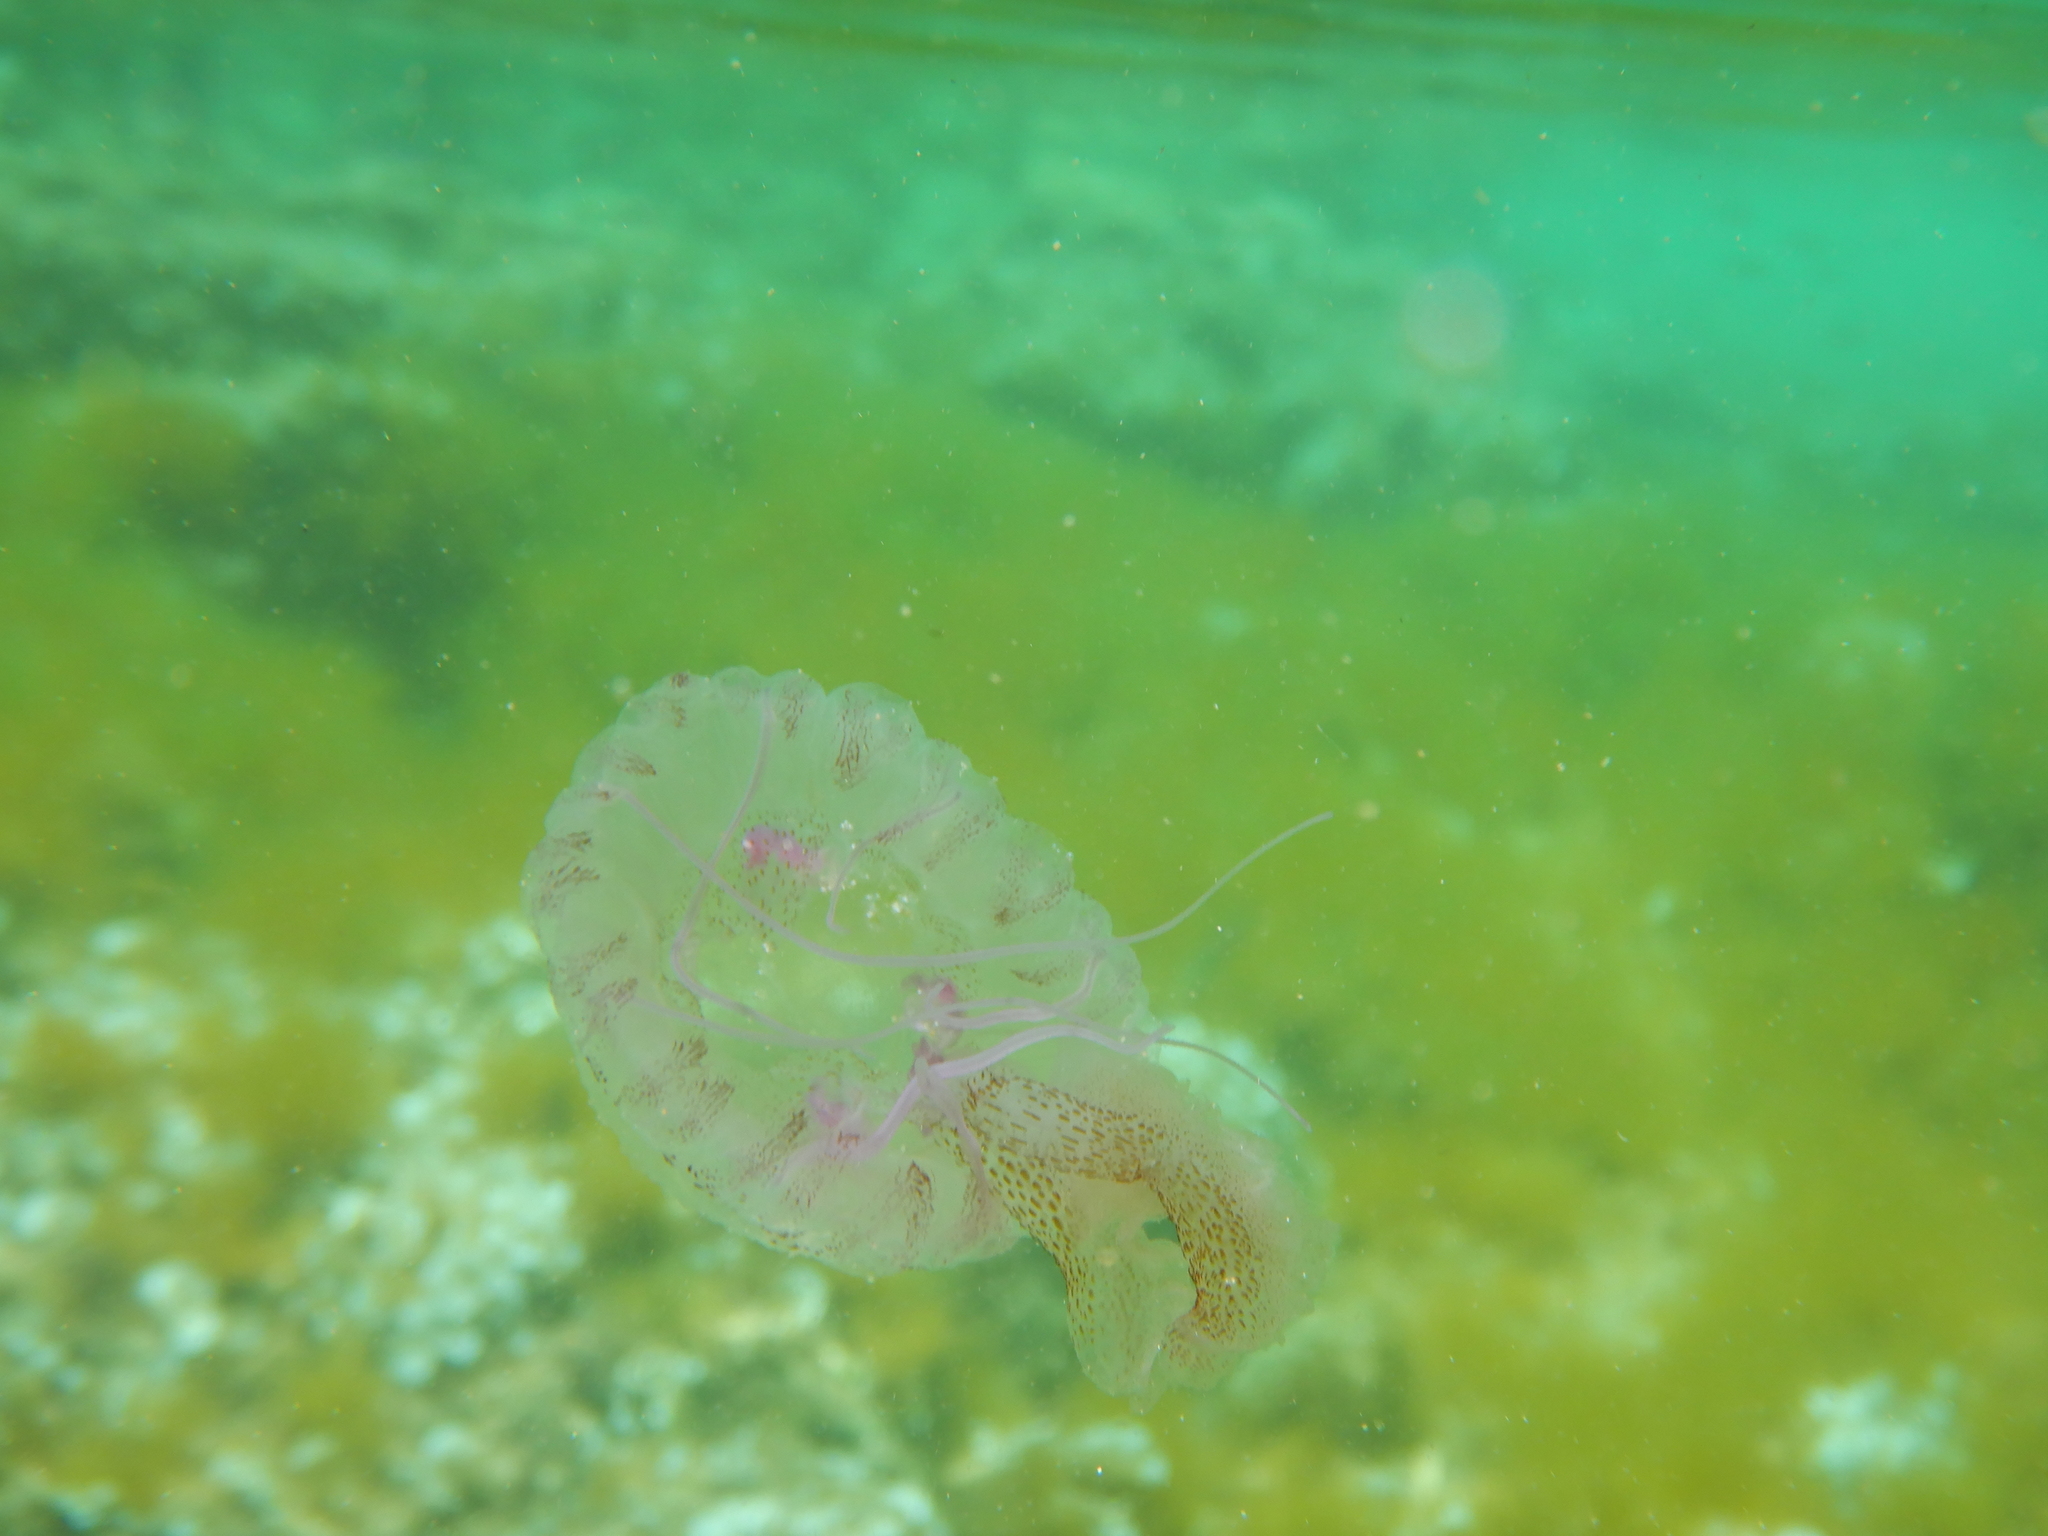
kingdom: Animalia
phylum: Cnidaria
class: Scyphozoa
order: Semaeostomeae
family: Pelagiidae
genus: Pelagia
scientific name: Pelagia noctiluca
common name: Mauve stinger
